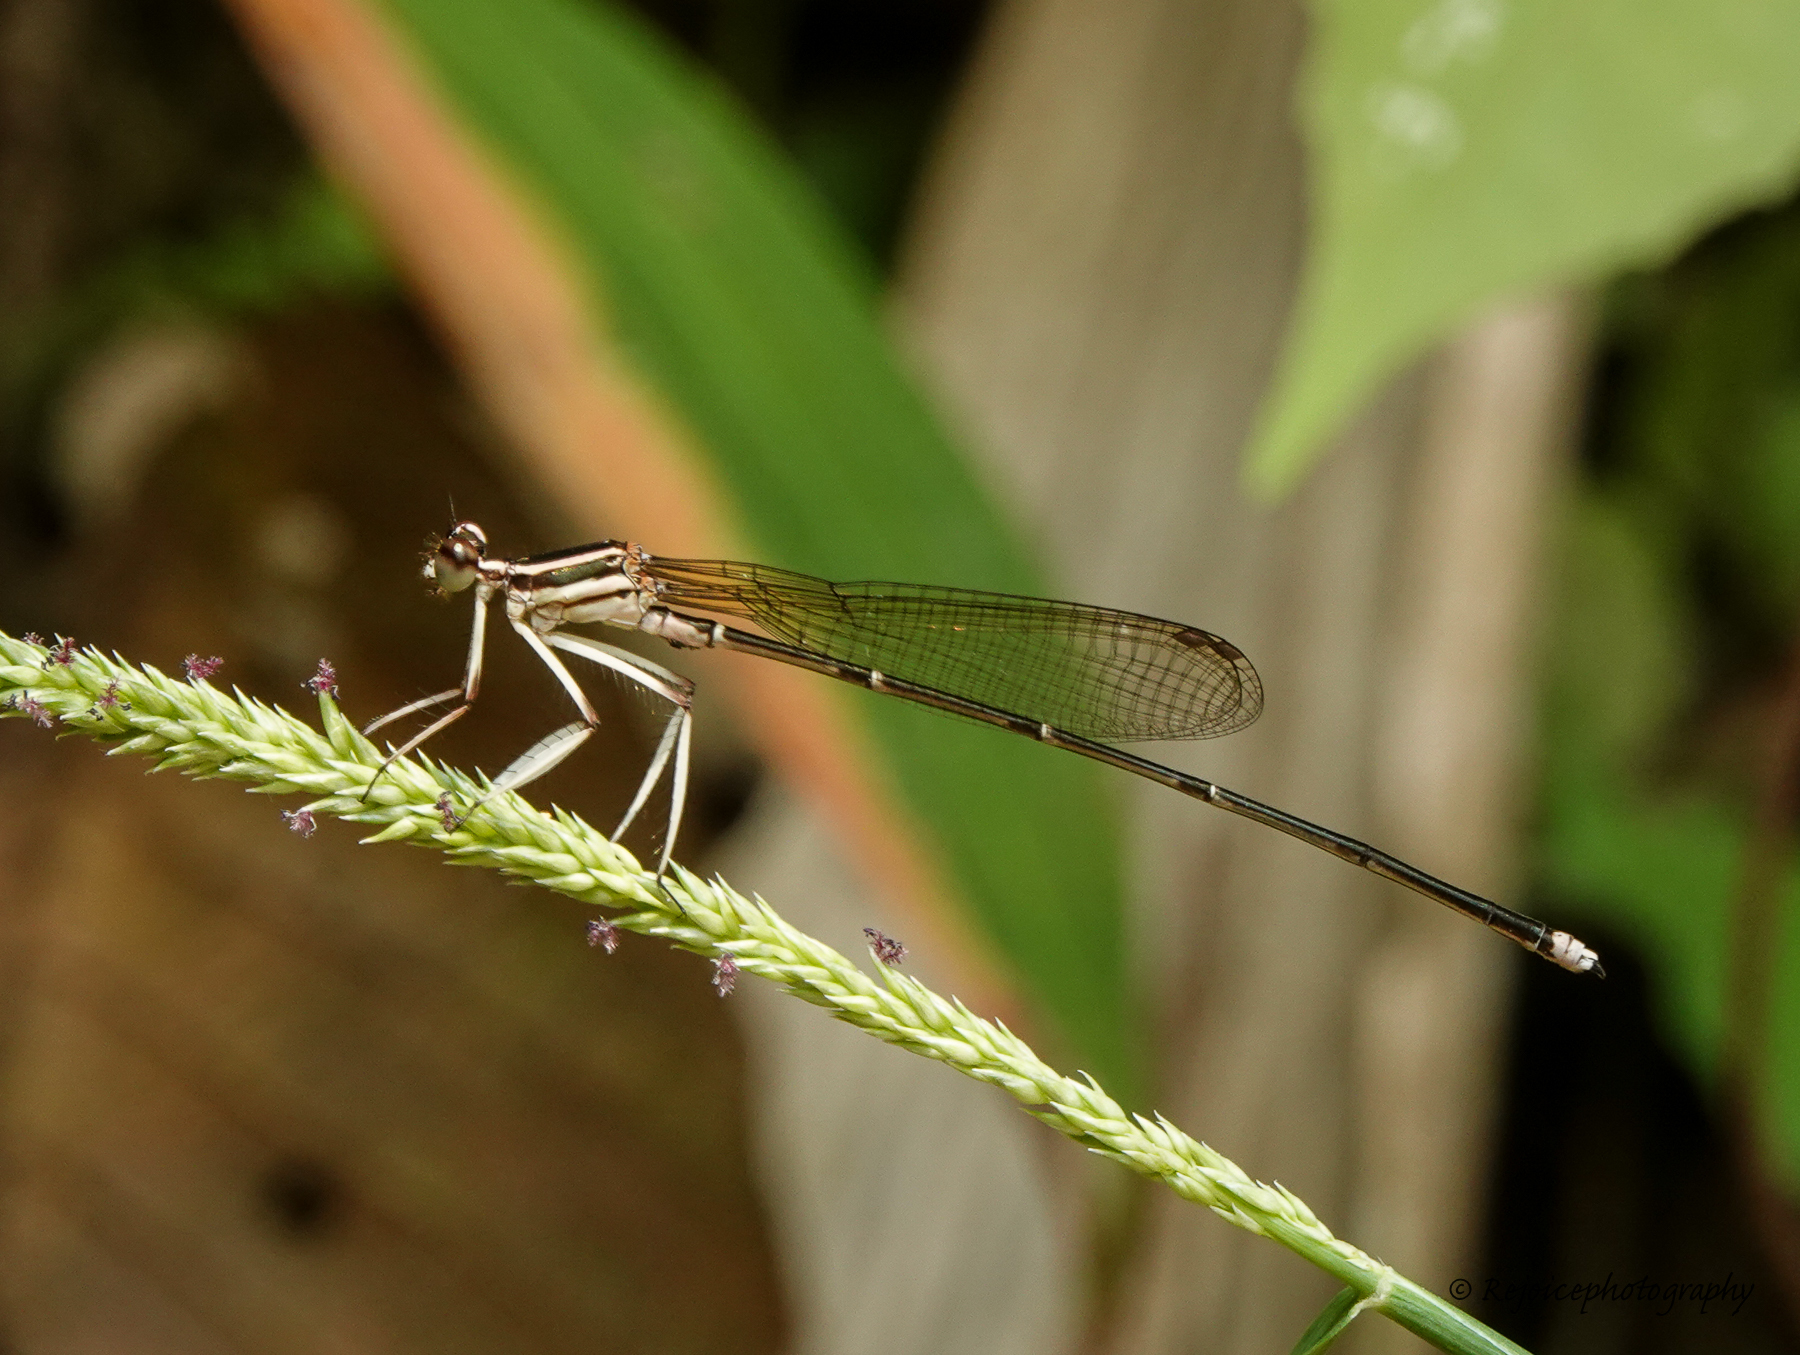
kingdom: Animalia
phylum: Arthropoda
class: Insecta
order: Odonata
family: Platycnemididae
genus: Pseudocopera
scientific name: Pseudocopera ciliata
